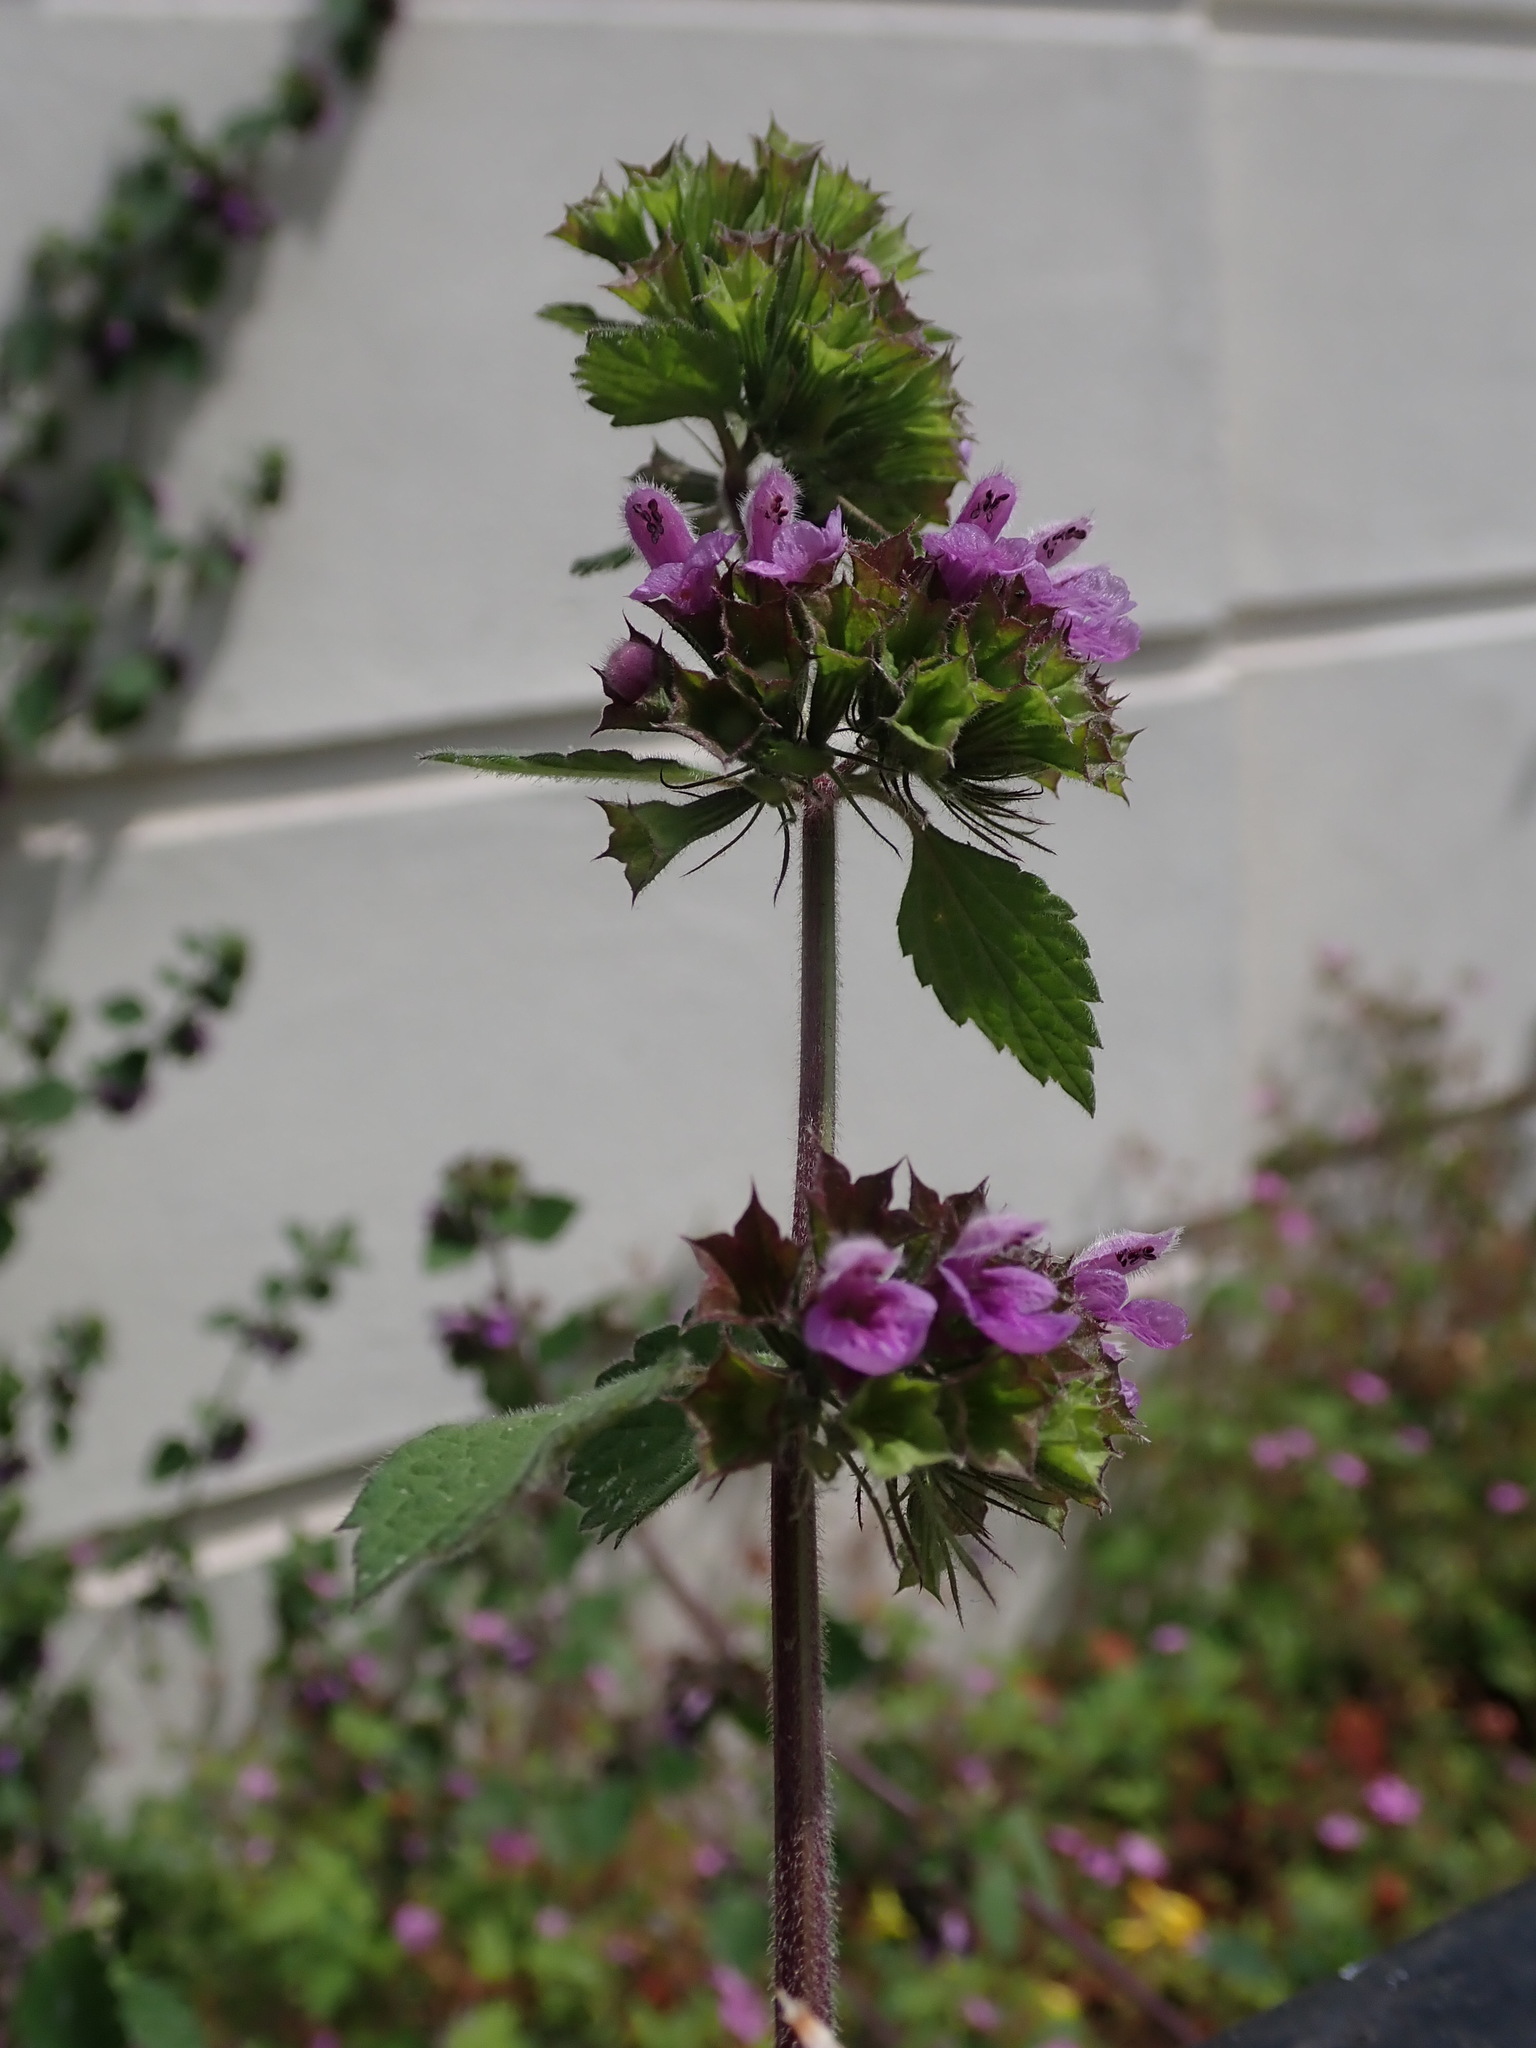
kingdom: Plantae
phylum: Tracheophyta
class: Magnoliopsida
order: Lamiales
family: Lamiaceae
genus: Ballota
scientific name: Ballota nigra
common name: Black horehound
